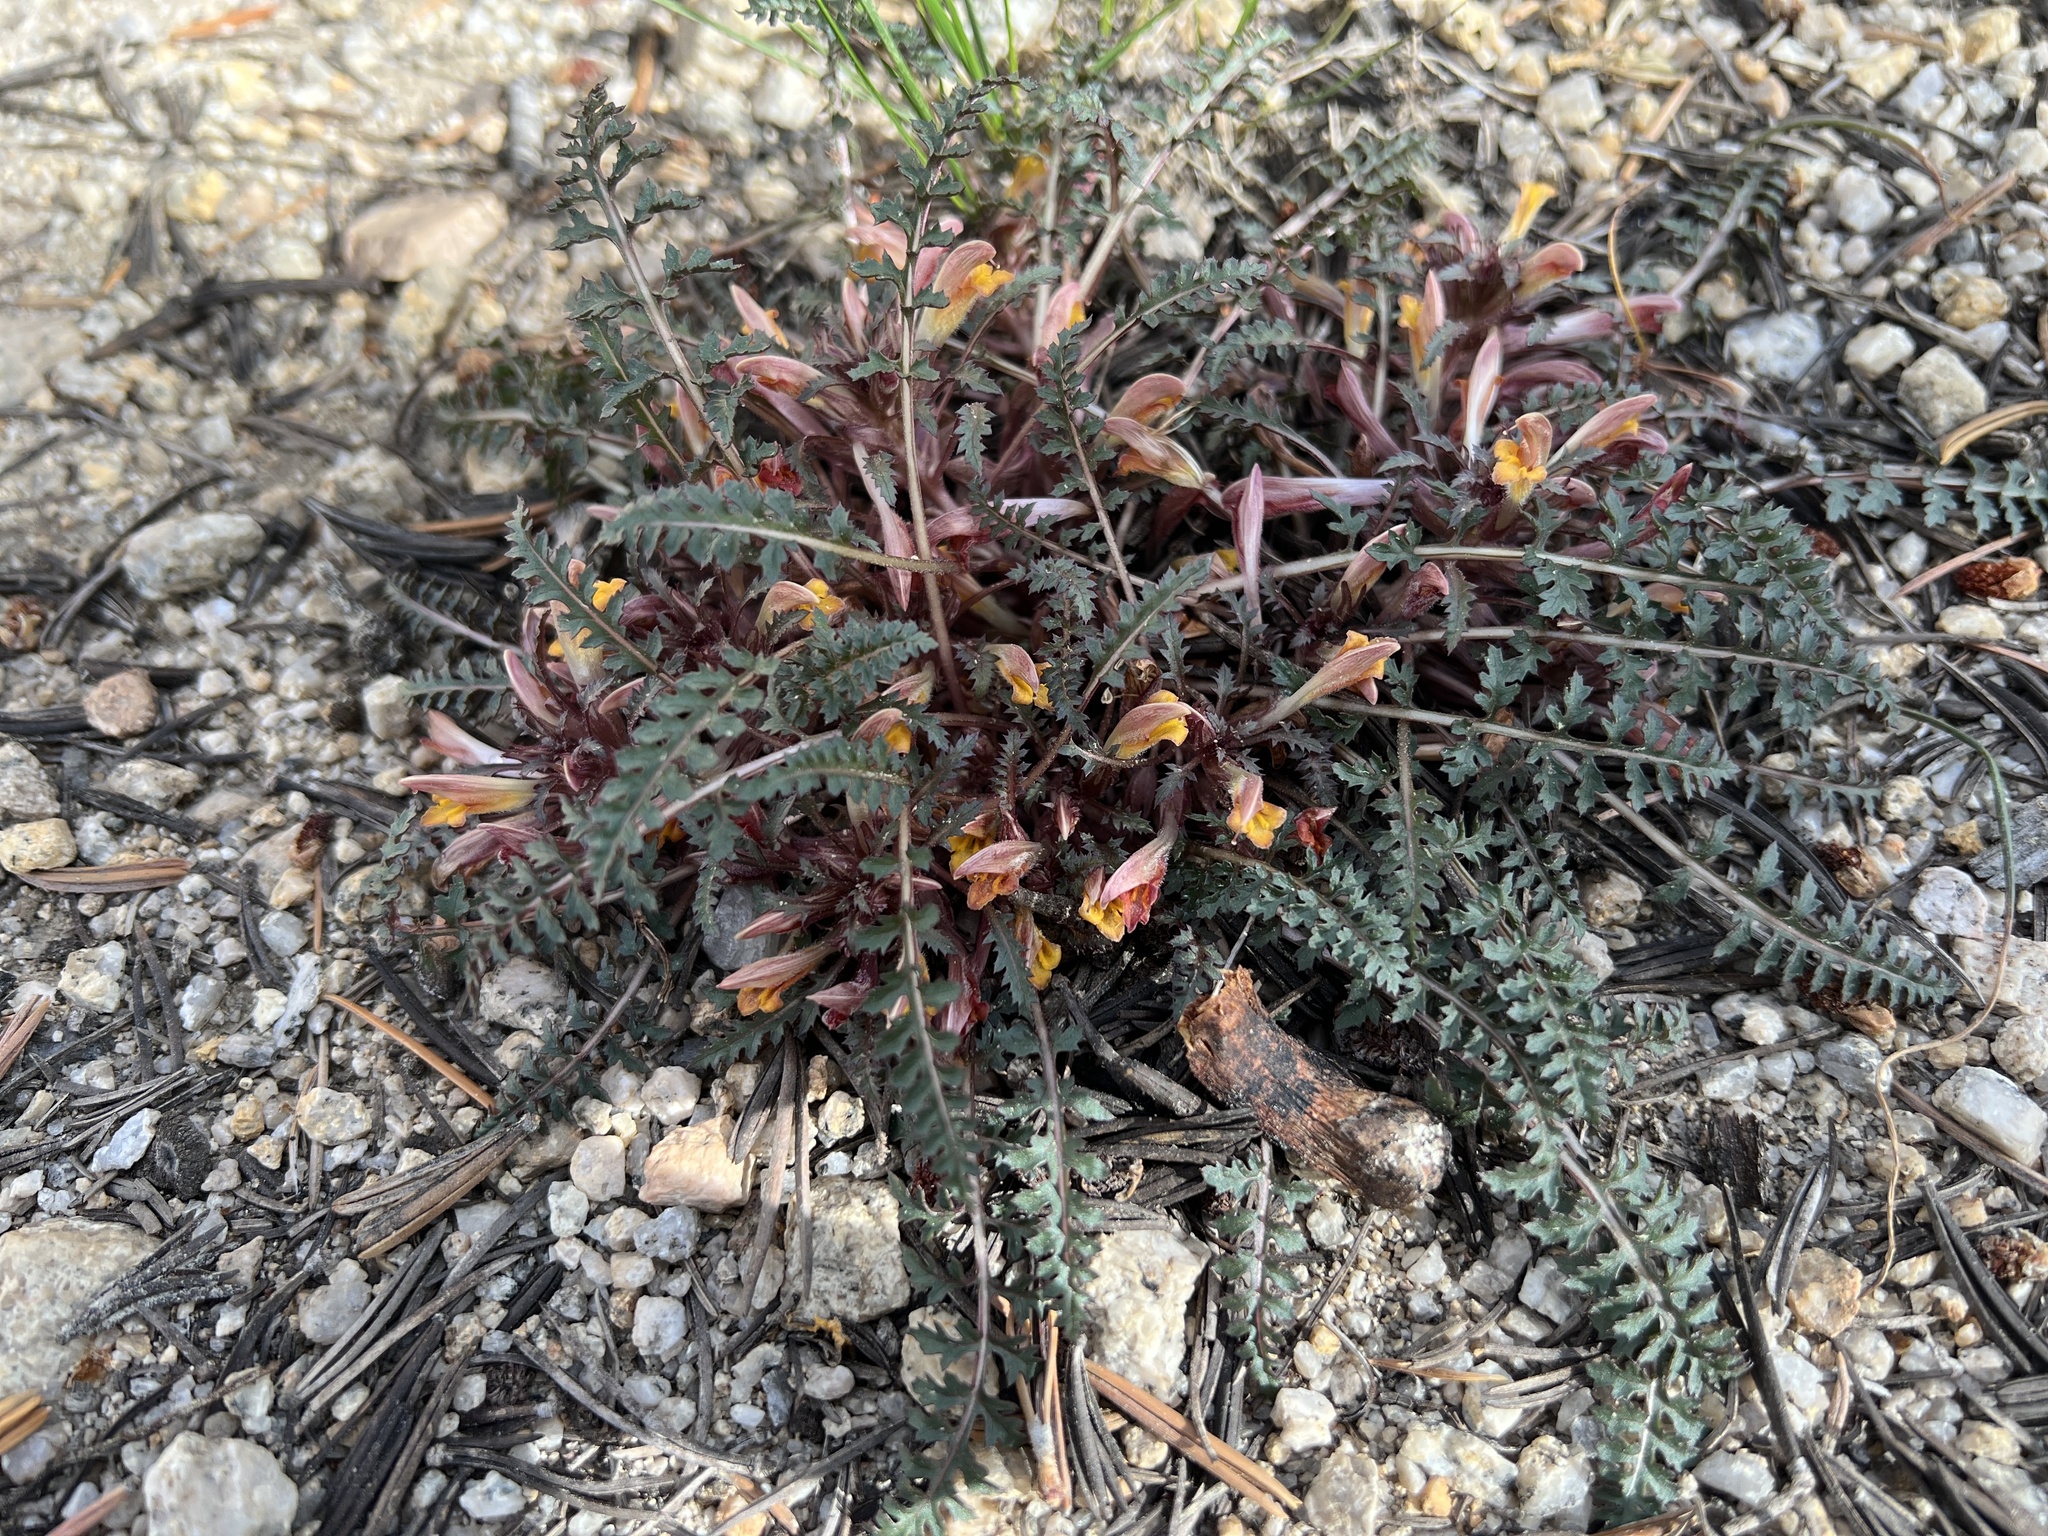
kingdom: Plantae
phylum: Tracheophyta
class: Magnoliopsida
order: Lamiales
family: Orobanchaceae
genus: Pedicularis
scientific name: Pedicularis semibarbata
